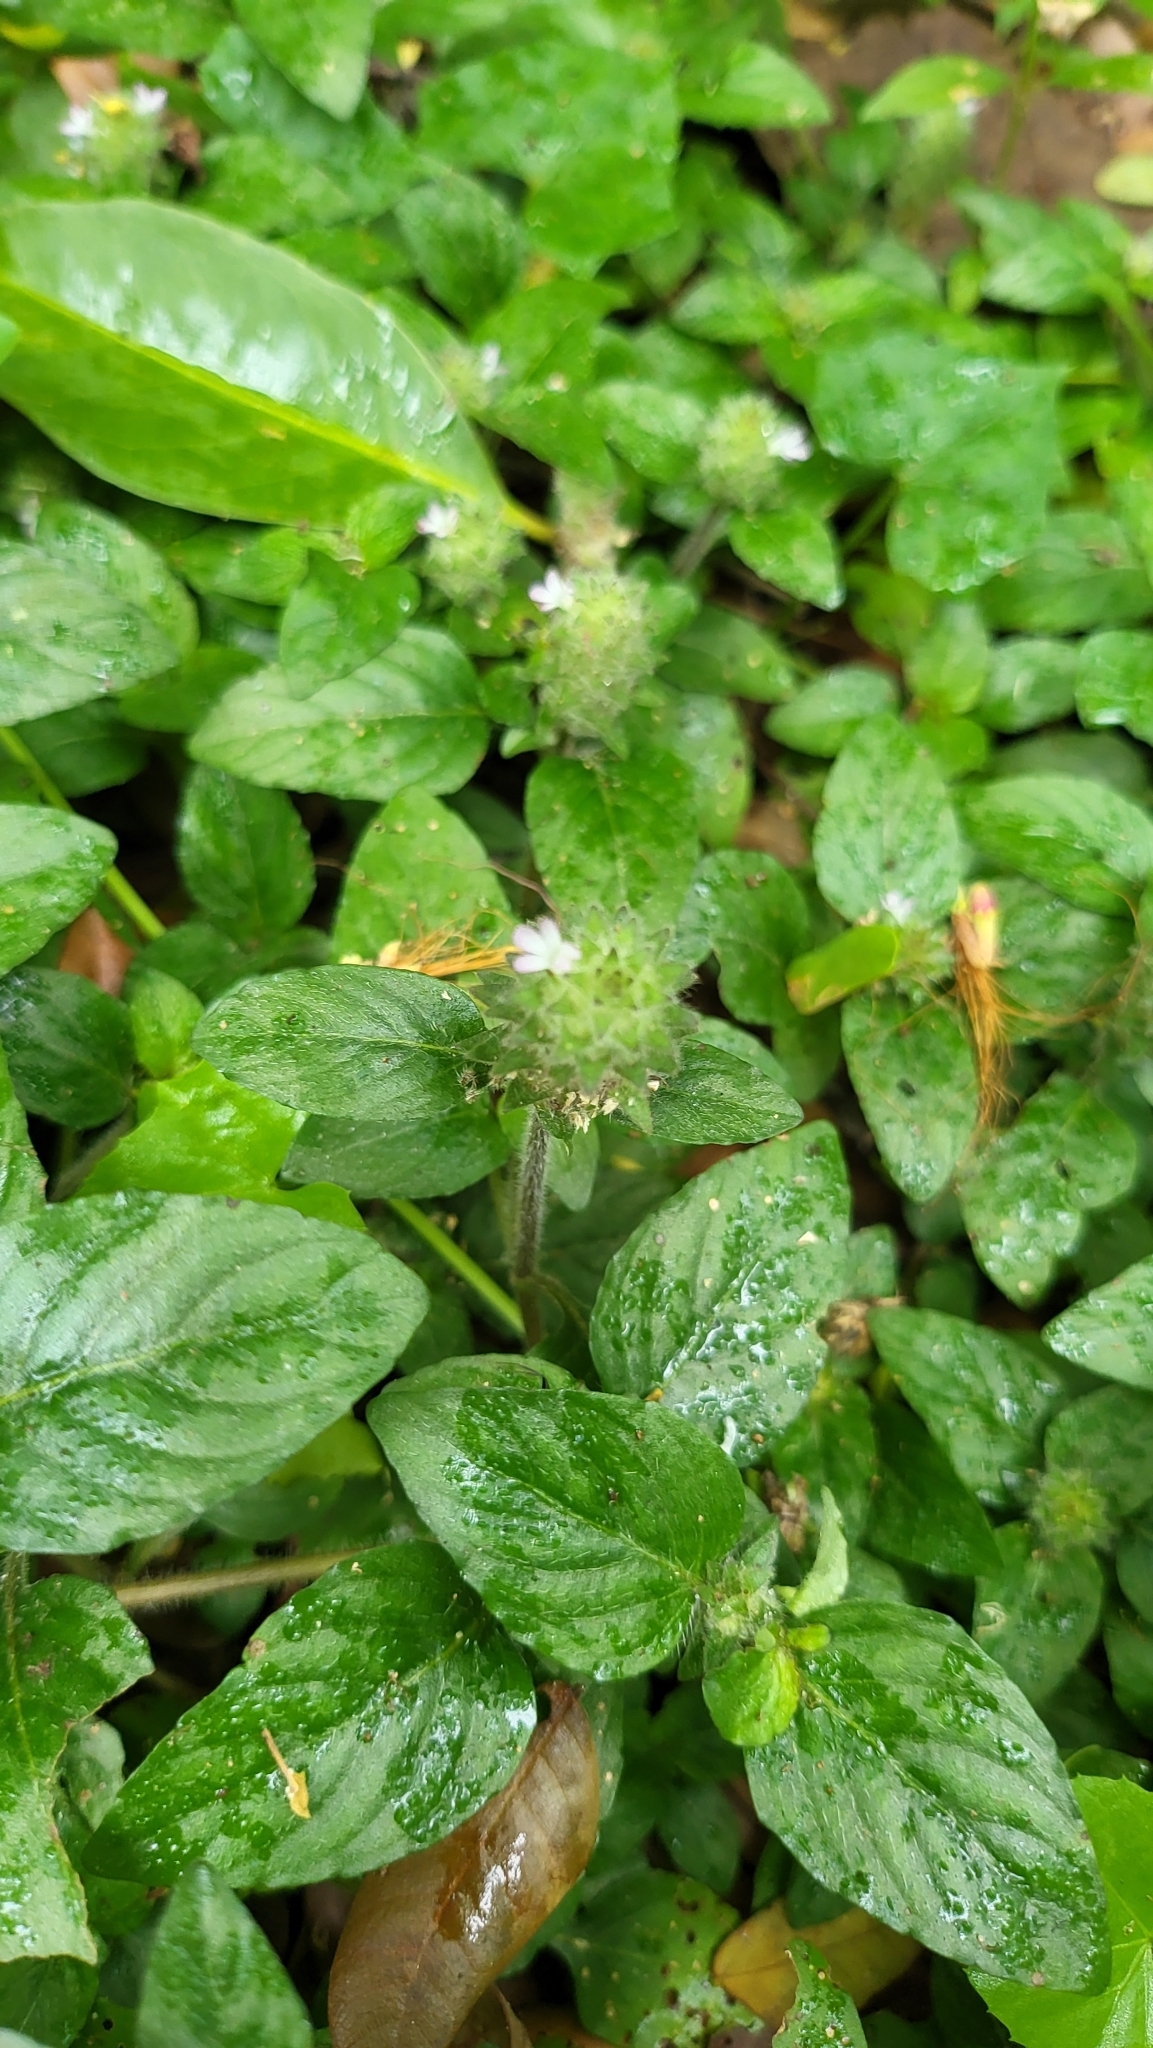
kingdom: Plantae
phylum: Tracheophyta
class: Magnoliopsida
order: Lamiales
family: Acanthaceae
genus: Nelsonia
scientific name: Nelsonia canescens
